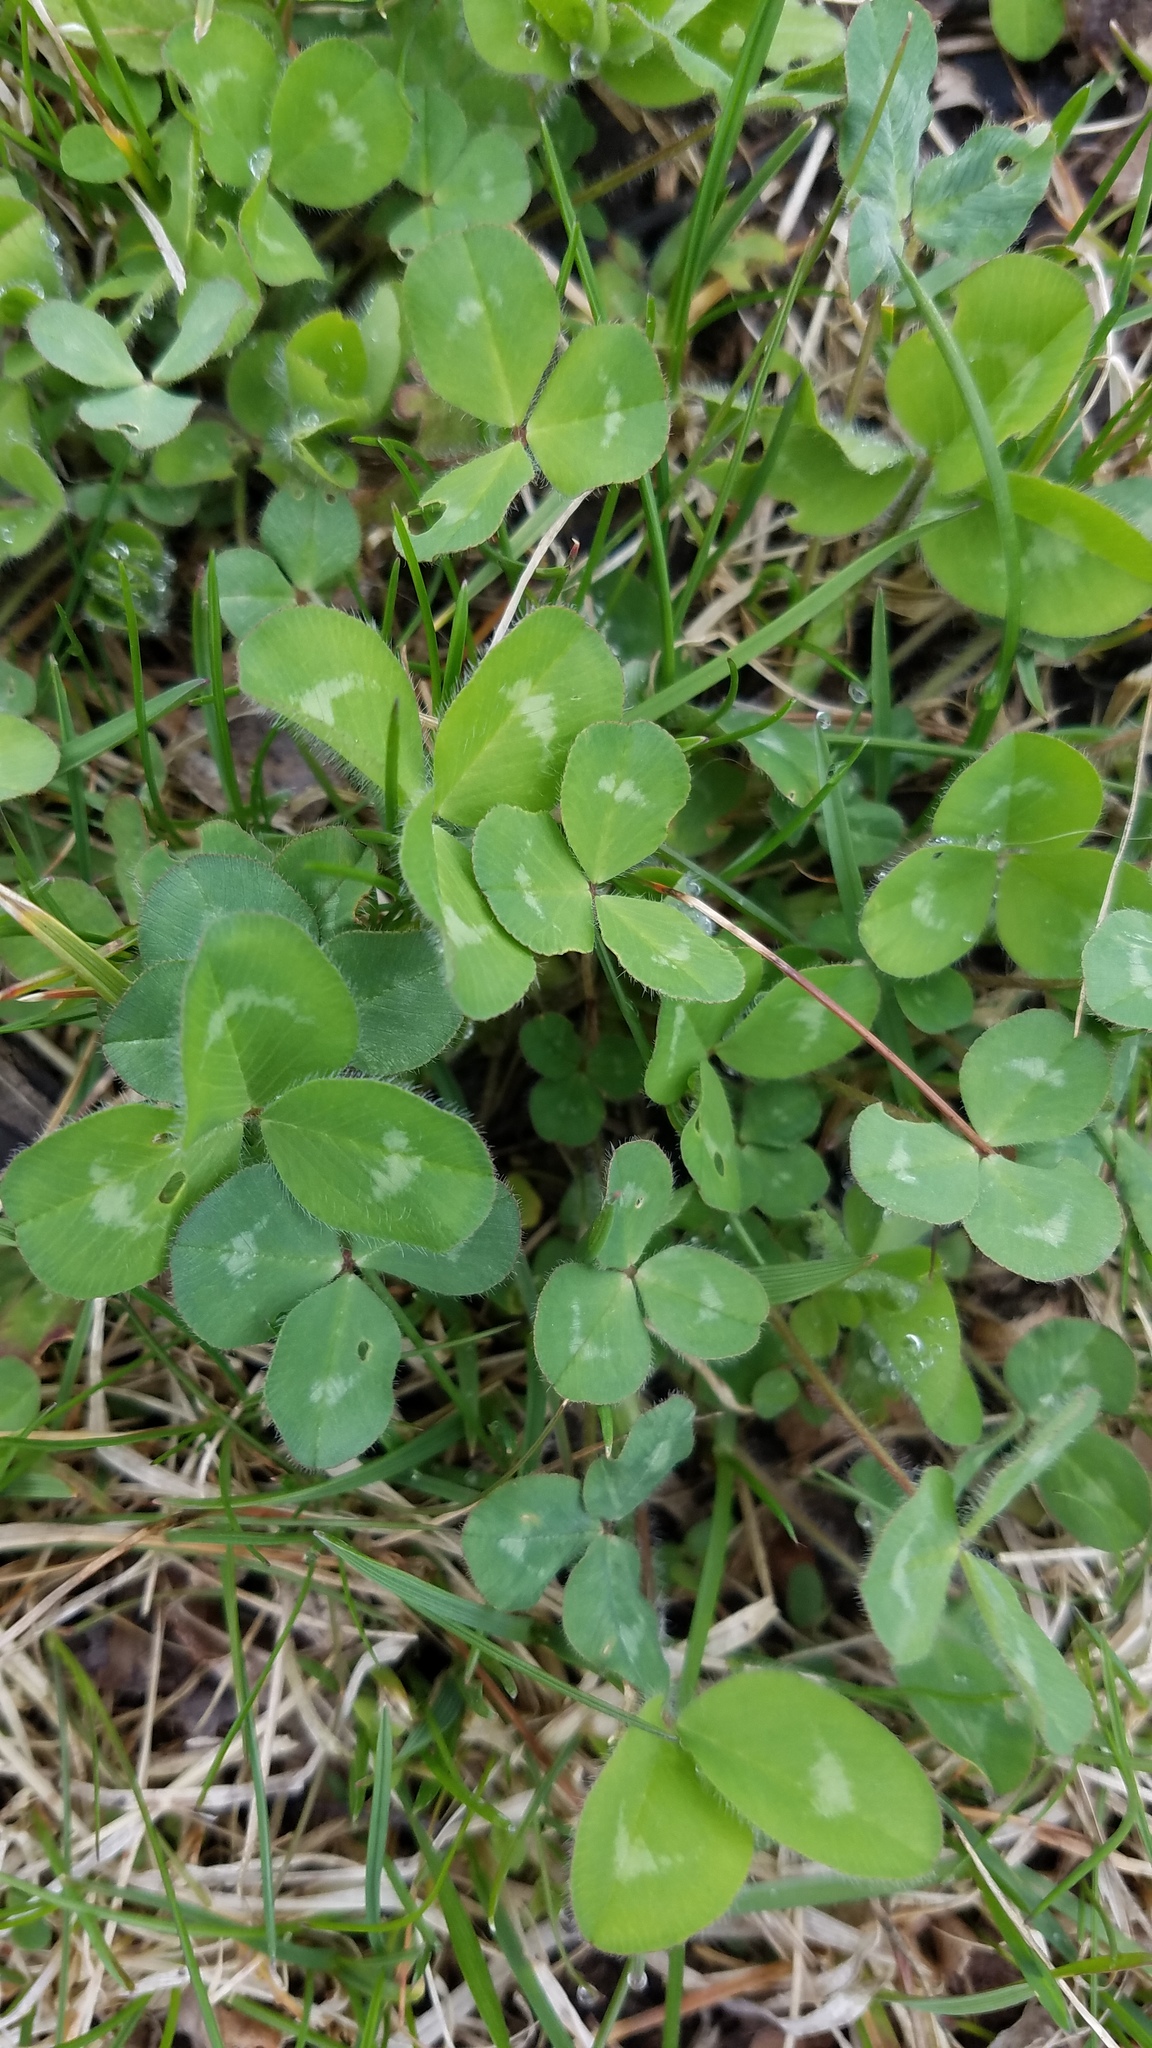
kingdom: Plantae
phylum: Tracheophyta
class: Magnoliopsida
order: Fabales
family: Fabaceae
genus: Trifolium
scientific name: Trifolium pratense
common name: Red clover
